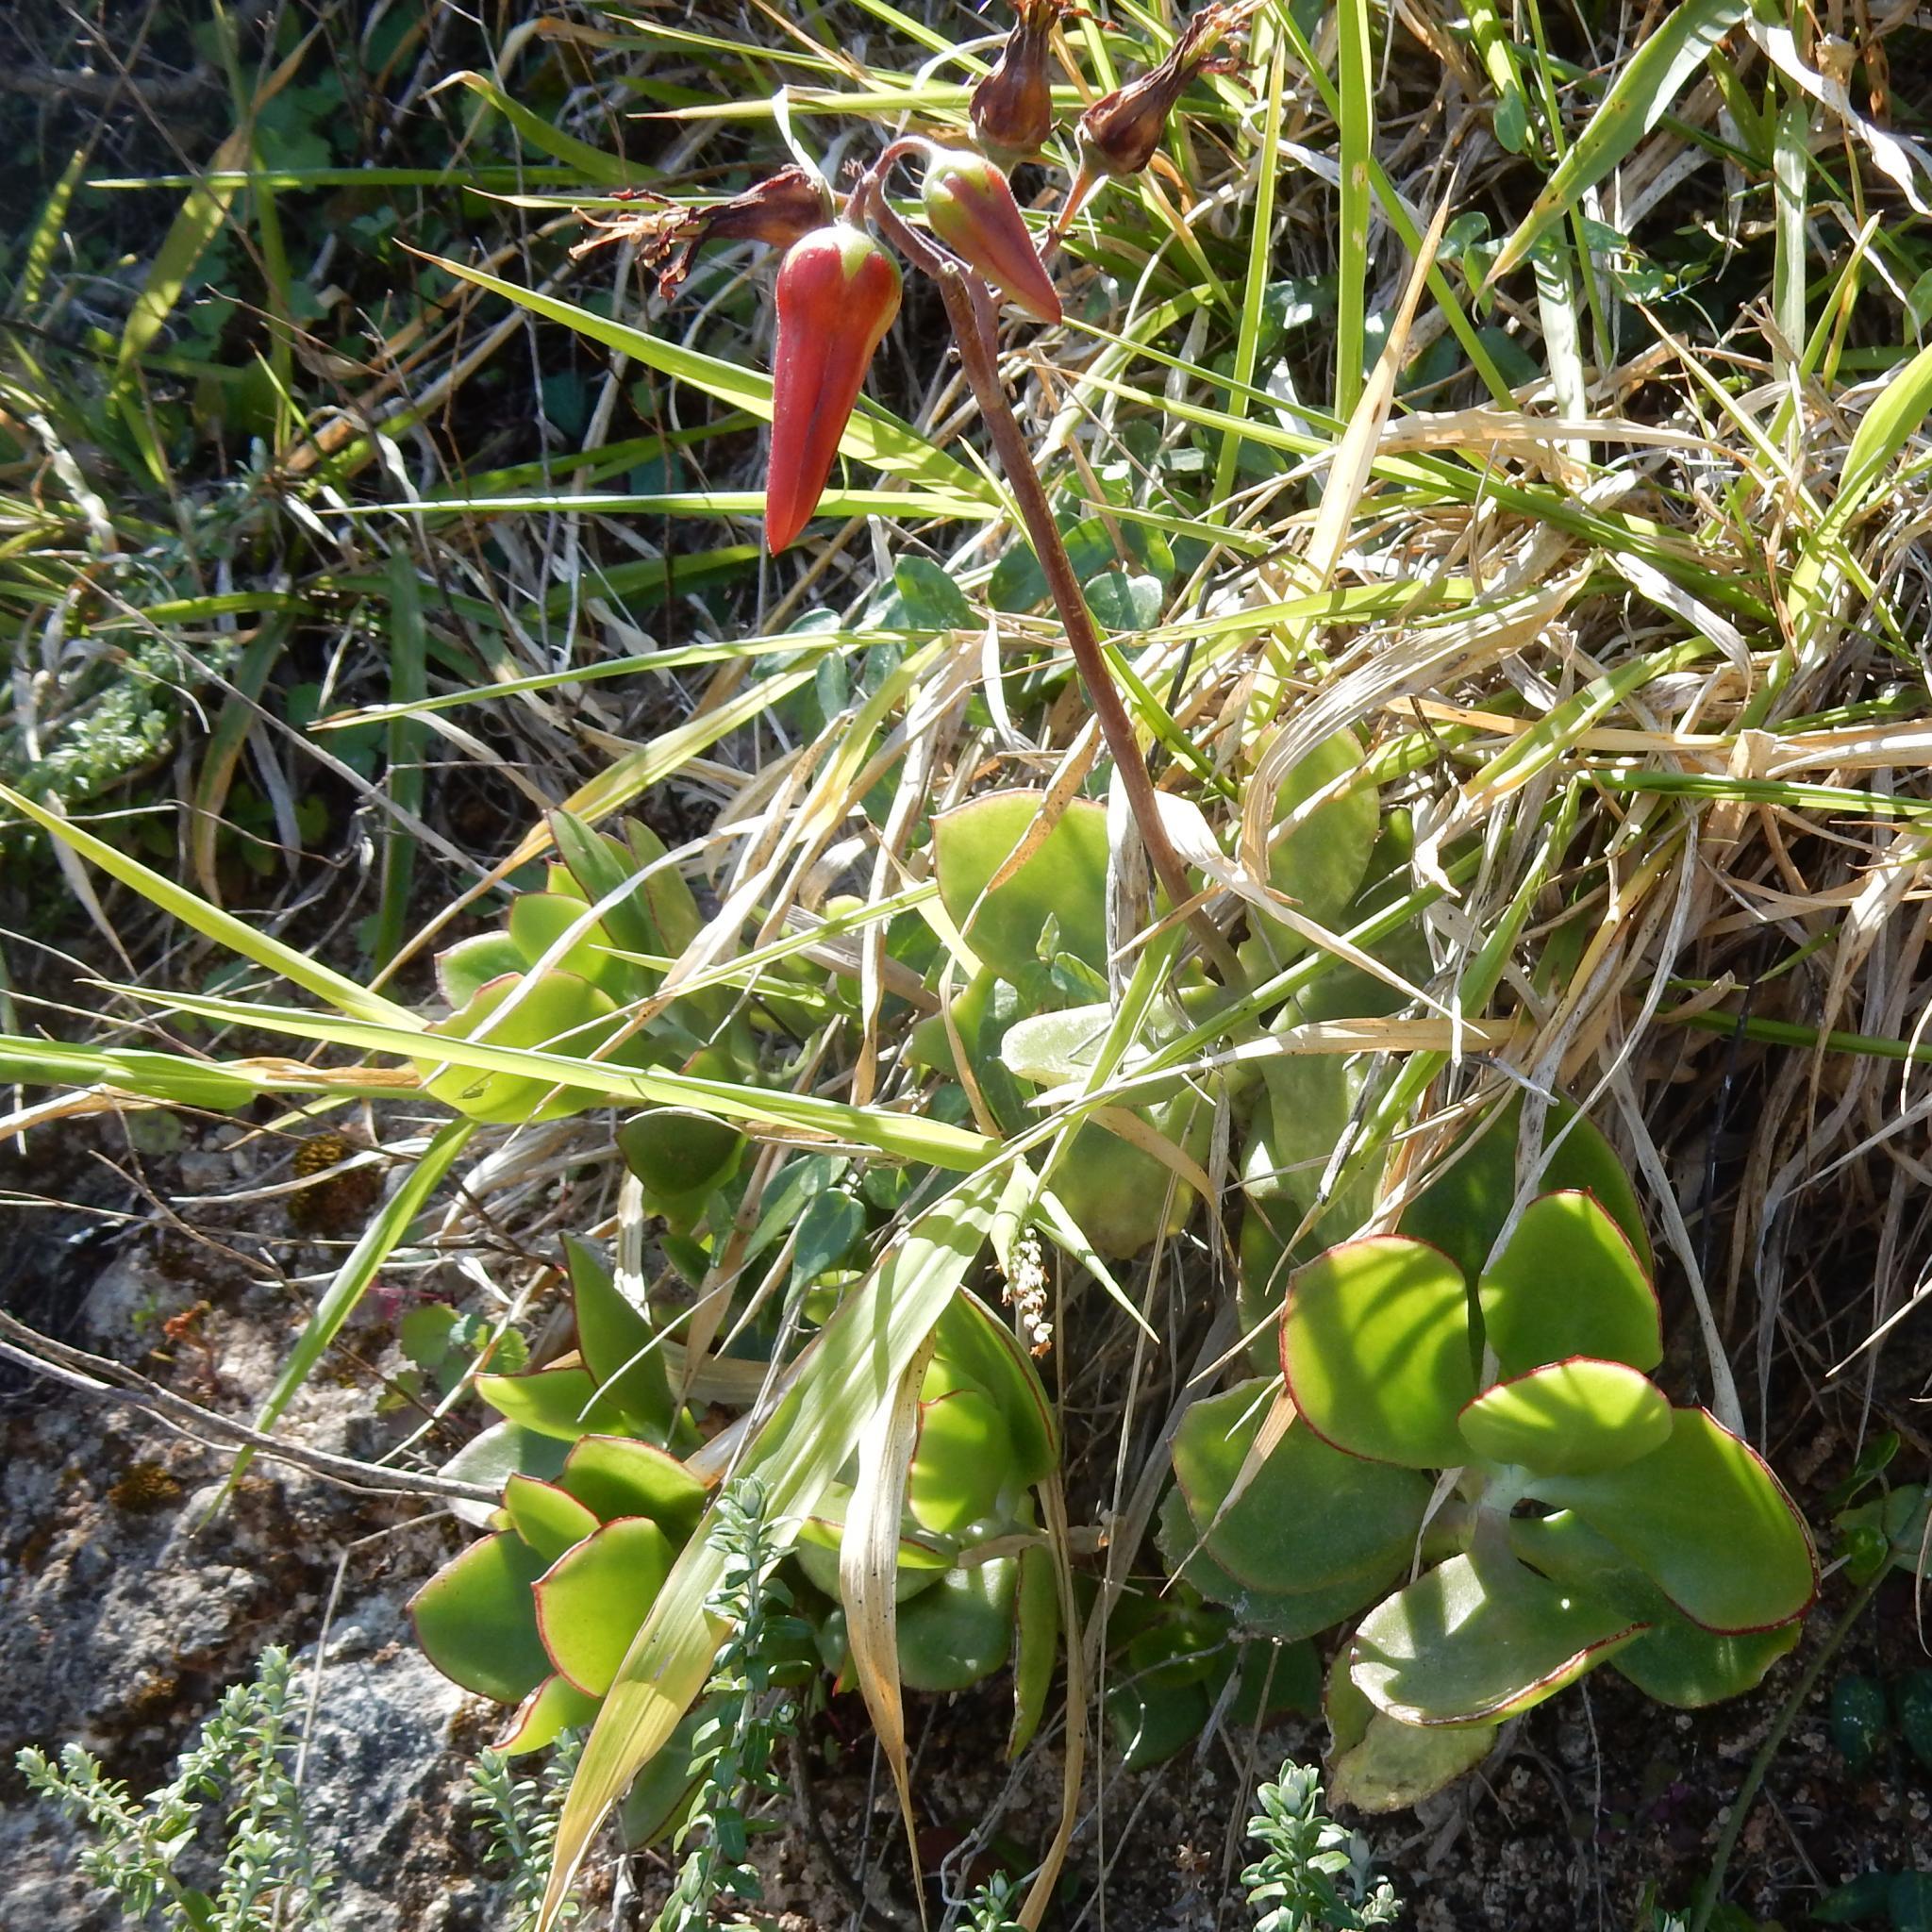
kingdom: Plantae
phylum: Tracheophyta
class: Magnoliopsida
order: Saxifragales
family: Crassulaceae
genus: Cotyledon
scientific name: Cotyledon velutina
